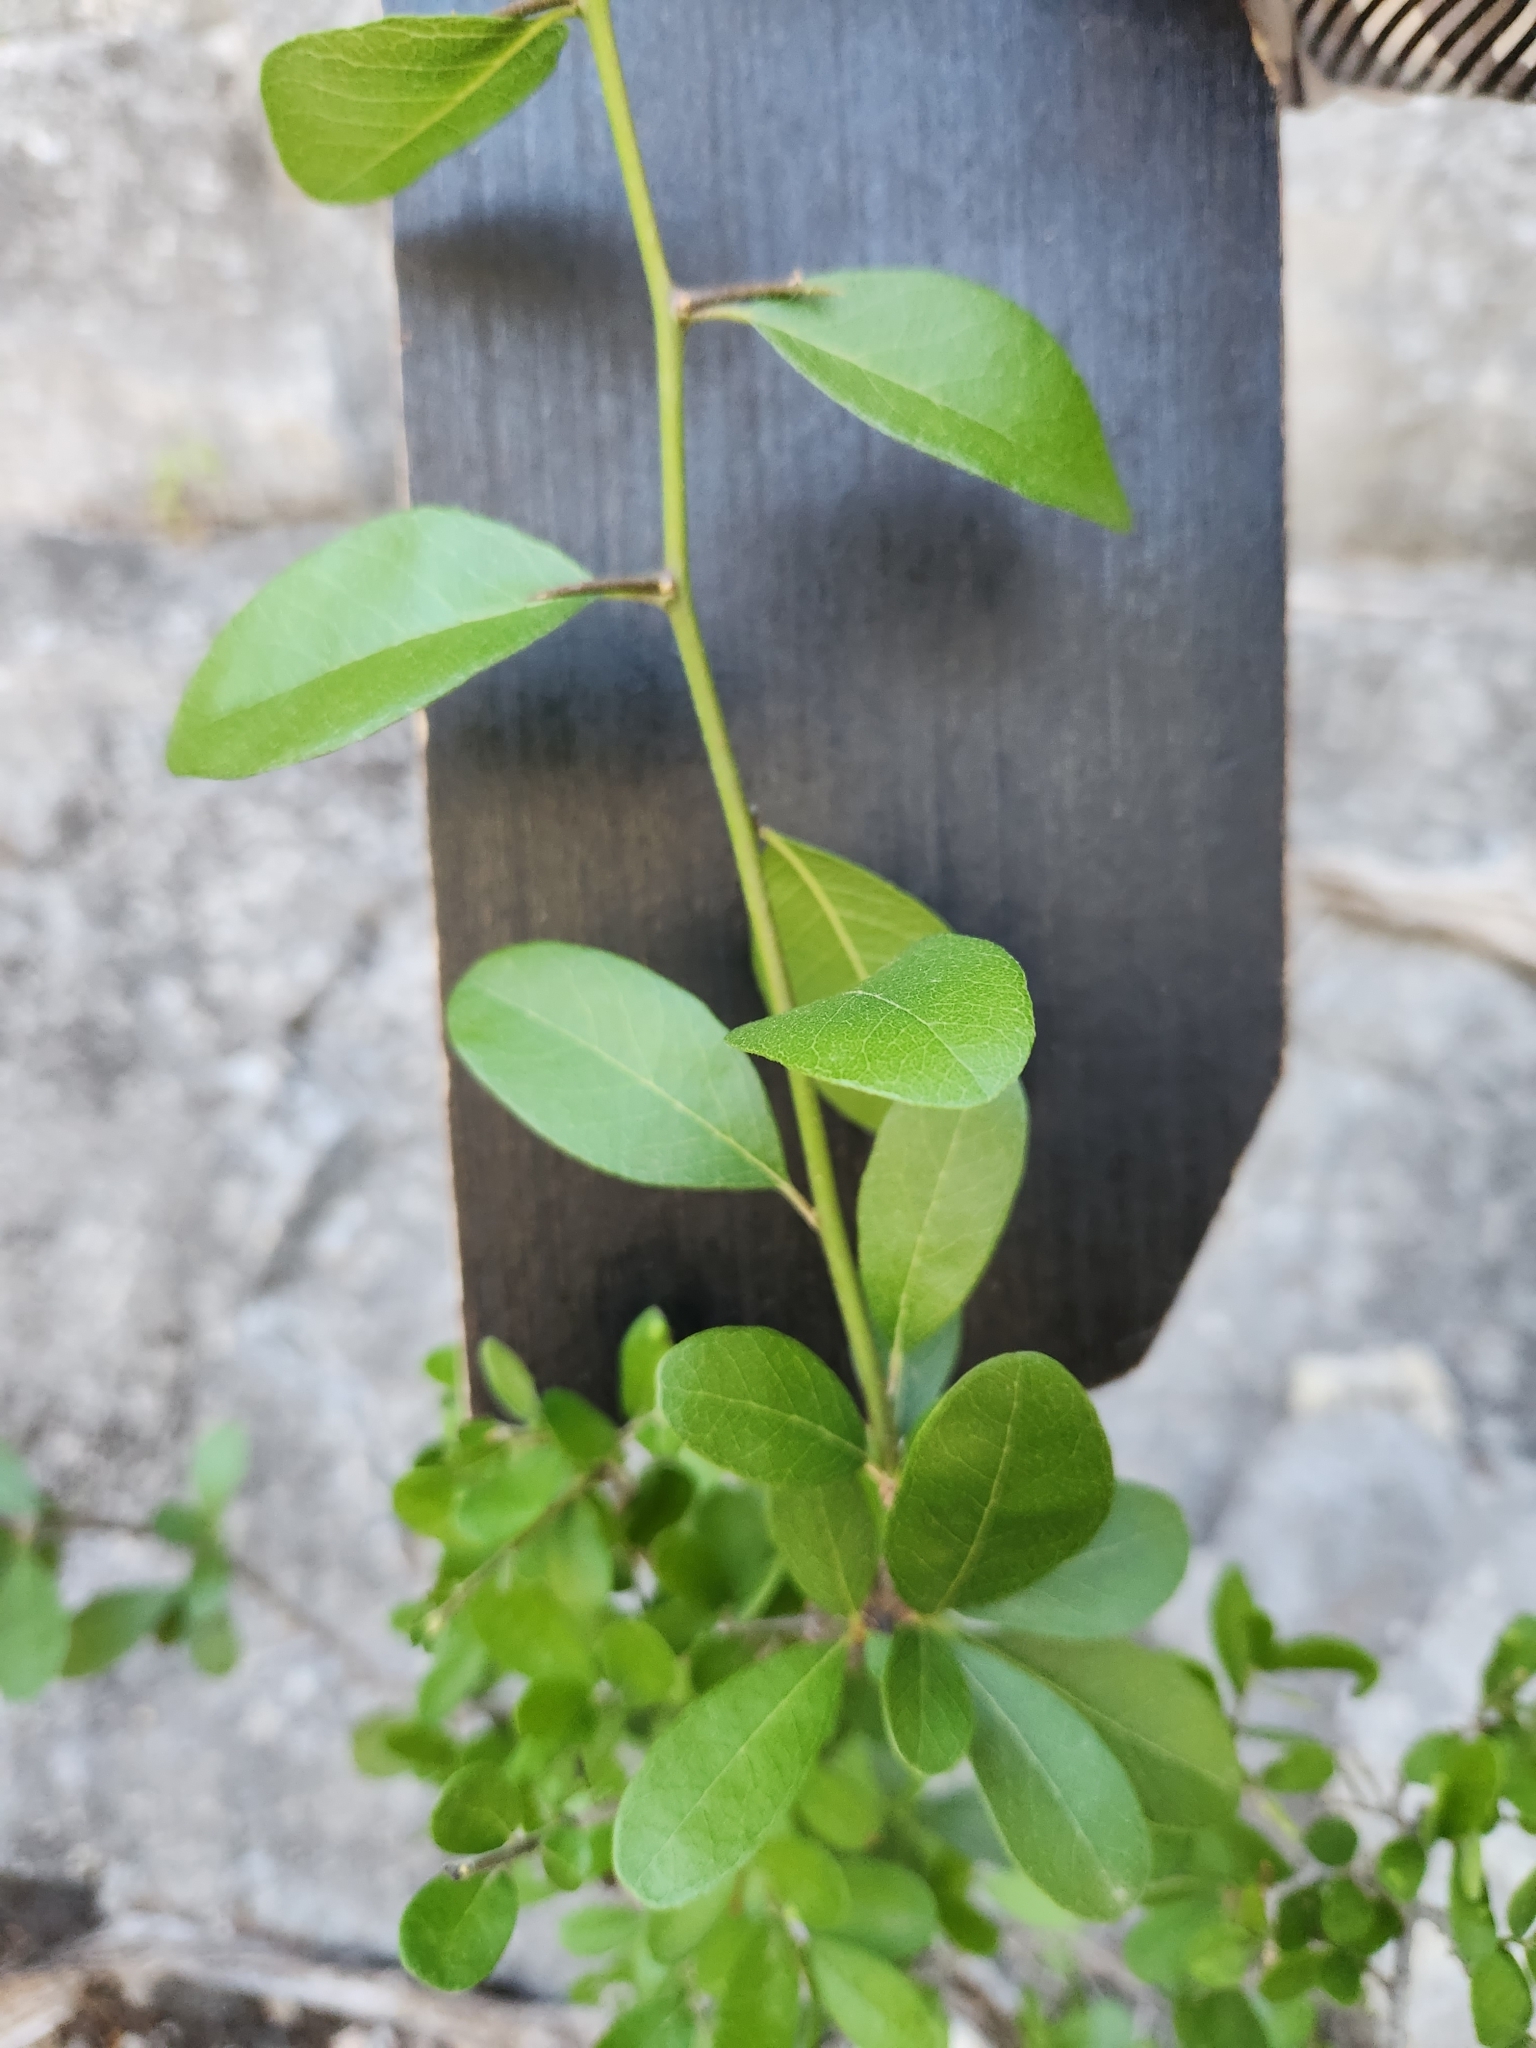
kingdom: Plantae
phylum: Tracheophyta
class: Magnoliopsida
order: Ericales
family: Sapotaceae
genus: Sideroxylon
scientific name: Sideroxylon lanuginosum
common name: Chittamwood
